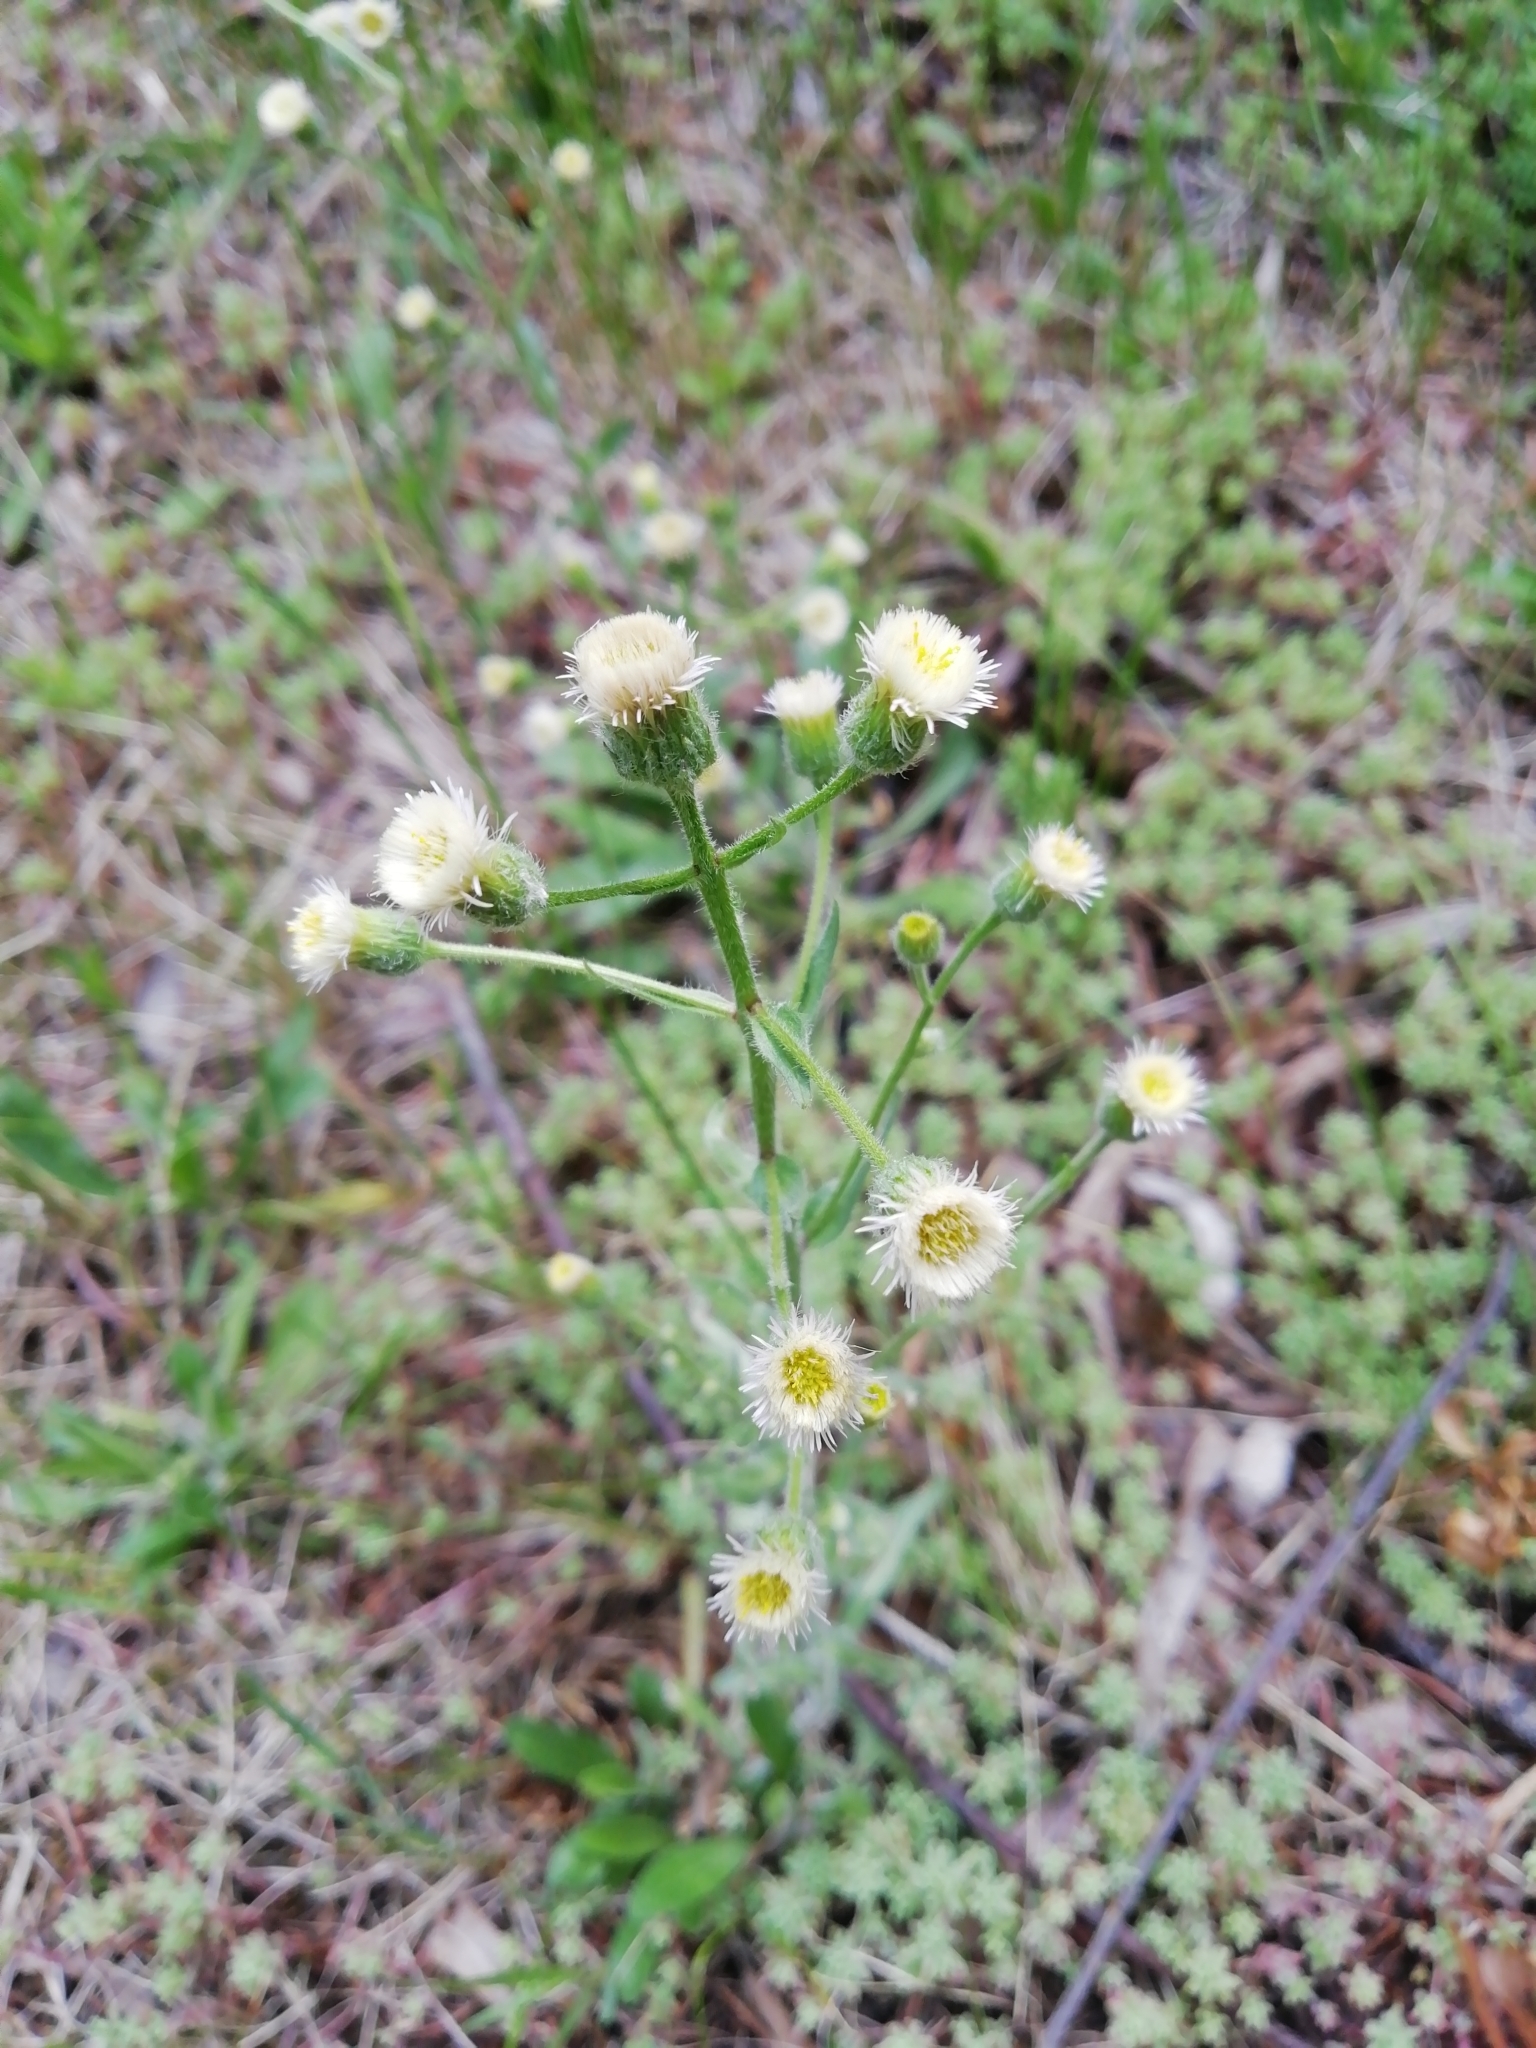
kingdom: Plantae
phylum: Tracheophyta
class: Magnoliopsida
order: Asterales
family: Asteraceae
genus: Erigeron
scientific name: Erigeron acris
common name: Blue fleabane
